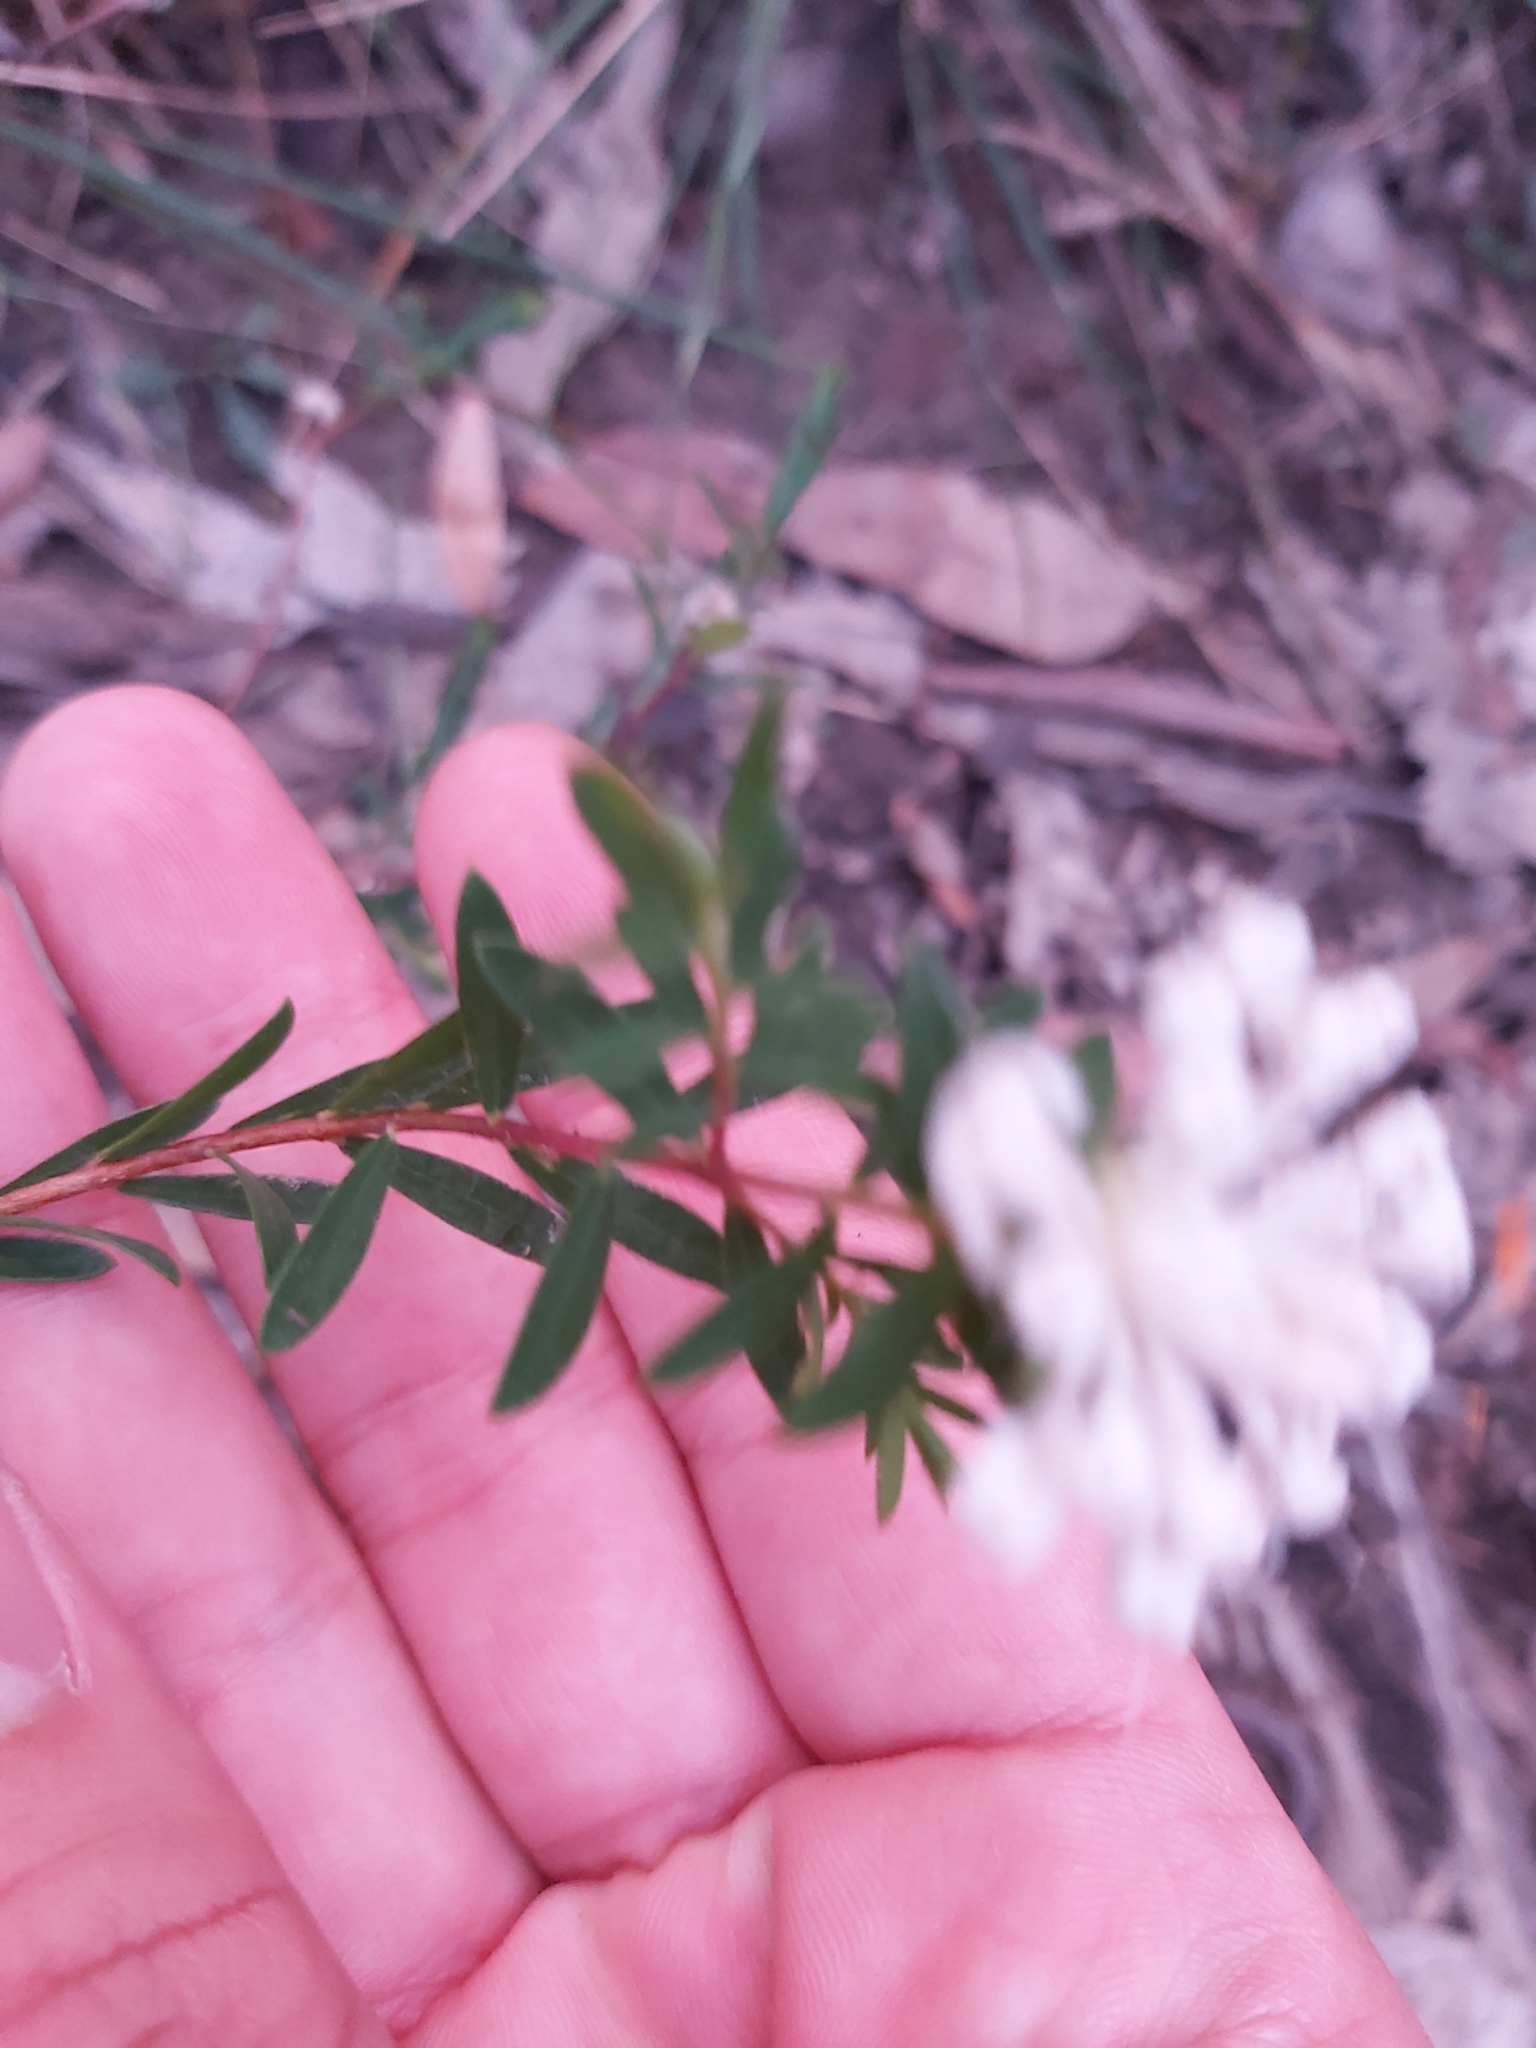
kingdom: Plantae
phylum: Tracheophyta
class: Magnoliopsida
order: Malvales
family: Thymelaeaceae
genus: Pimelea
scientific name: Pimelea linifolia
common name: Queen-of-the-bush
